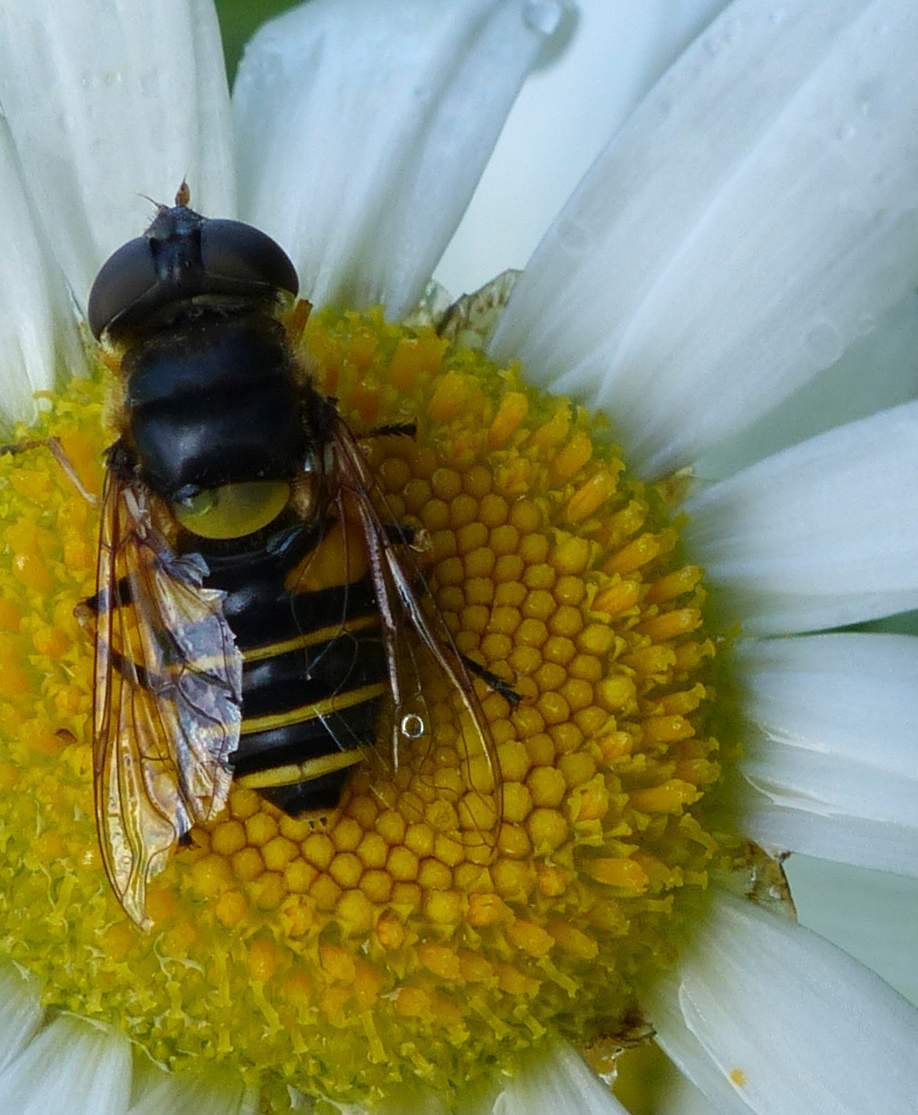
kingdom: Animalia
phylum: Arthropoda
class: Insecta
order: Diptera
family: Syrphidae
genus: Eristalis
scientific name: Eristalis transversa
